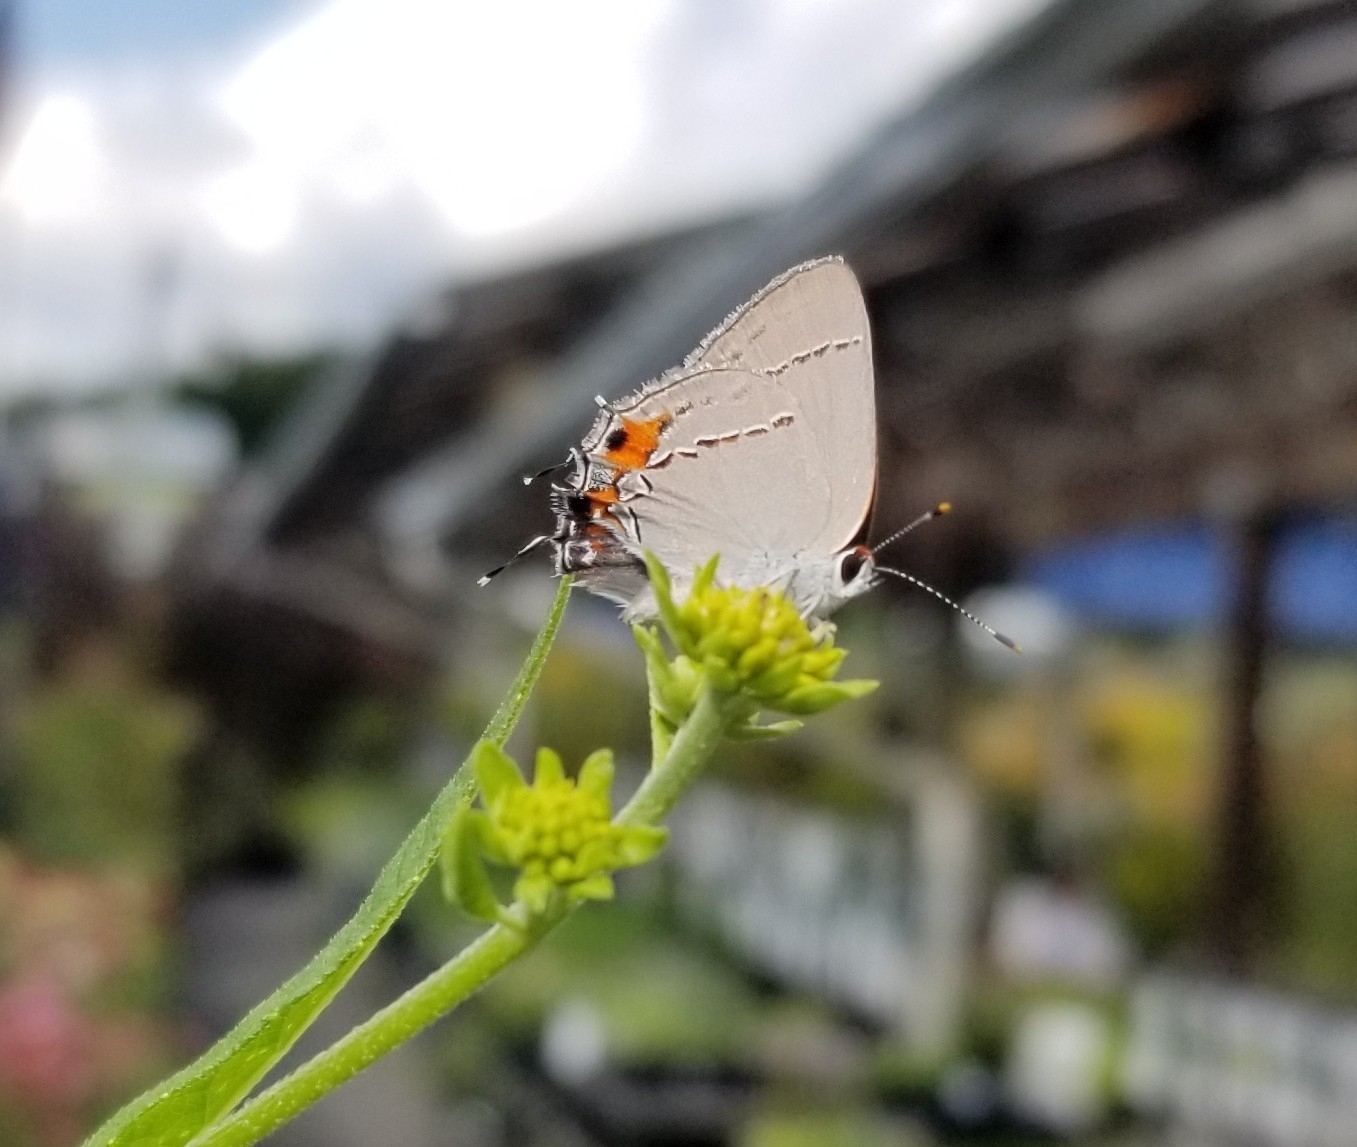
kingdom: Animalia
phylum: Arthropoda
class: Insecta
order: Lepidoptera
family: Lycaenidae
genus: Strymon
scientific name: Strymon melinus
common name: Gray hairstreak
